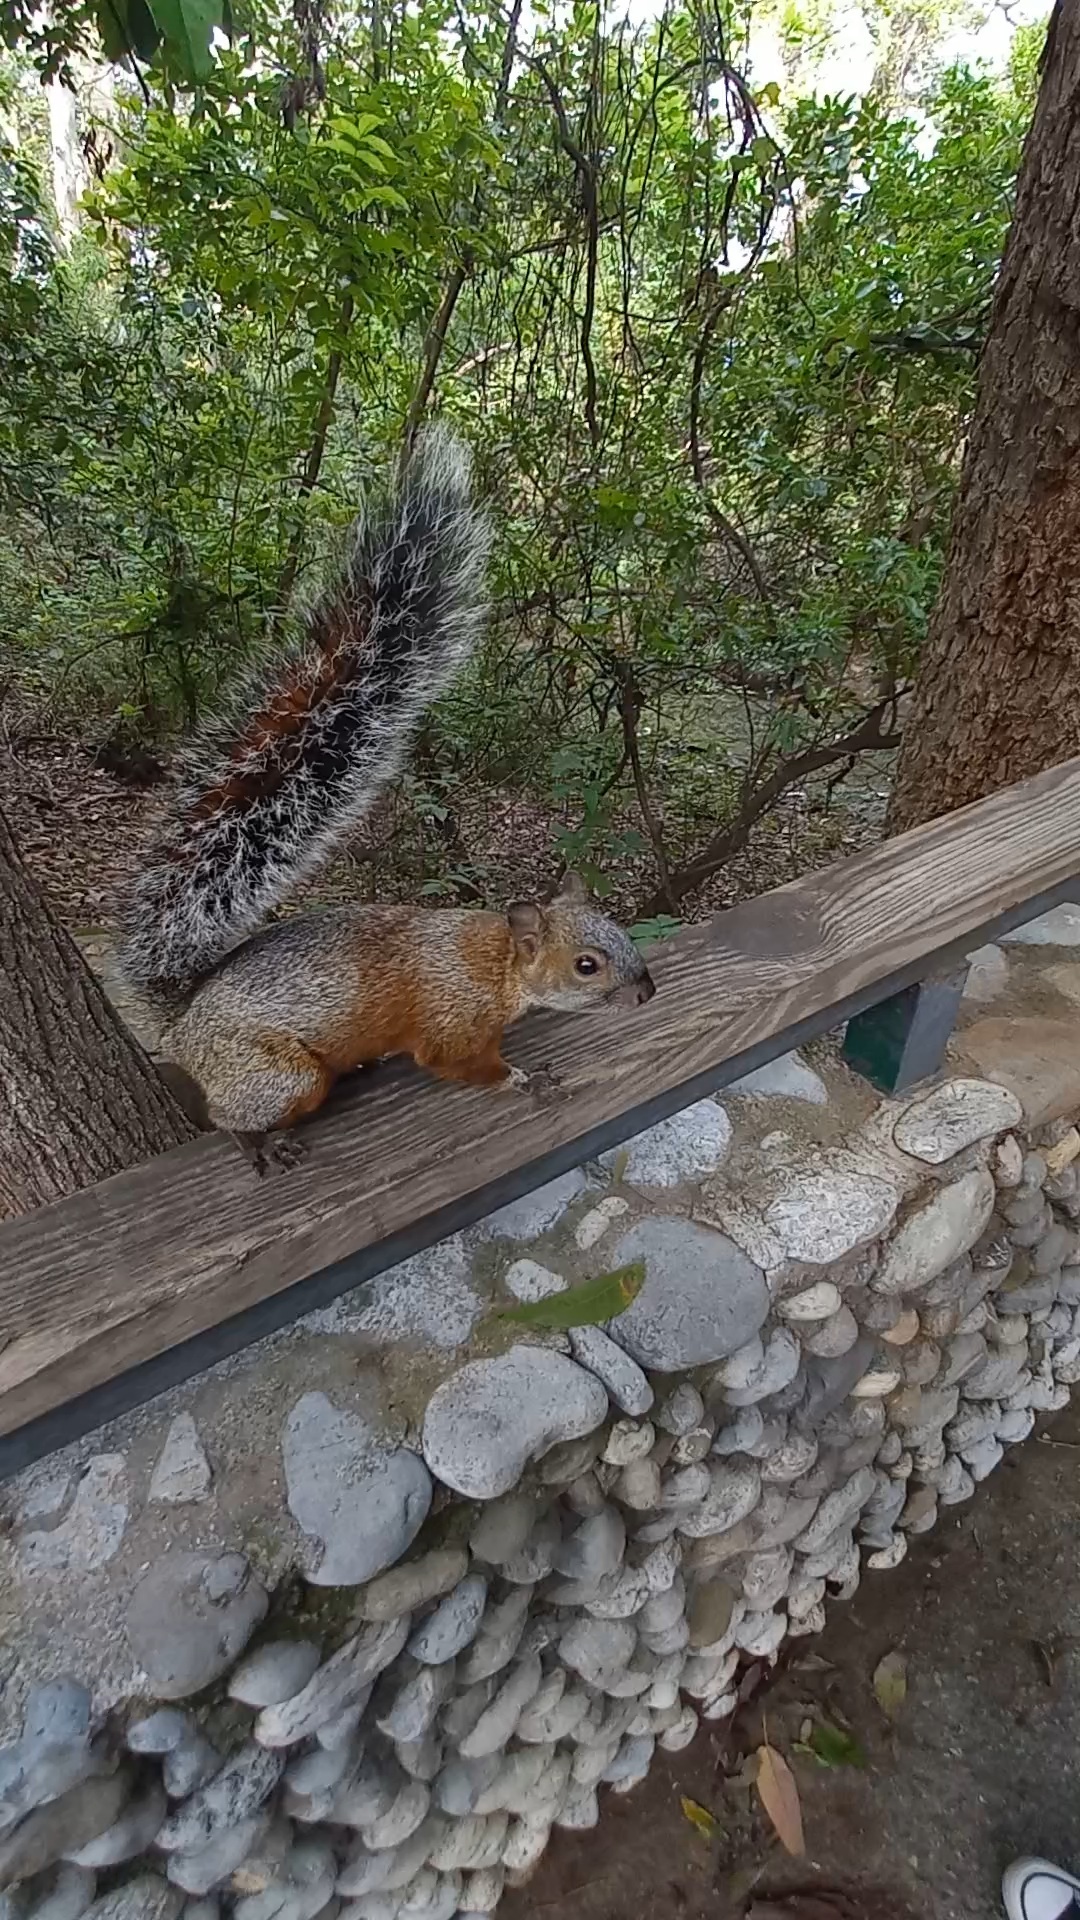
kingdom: Animalia
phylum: Chordata
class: Mammalia
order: Rodentia
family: Sciuridae
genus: Sciurus
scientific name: Sciurus aureogaster
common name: Red-bellied squirrel
